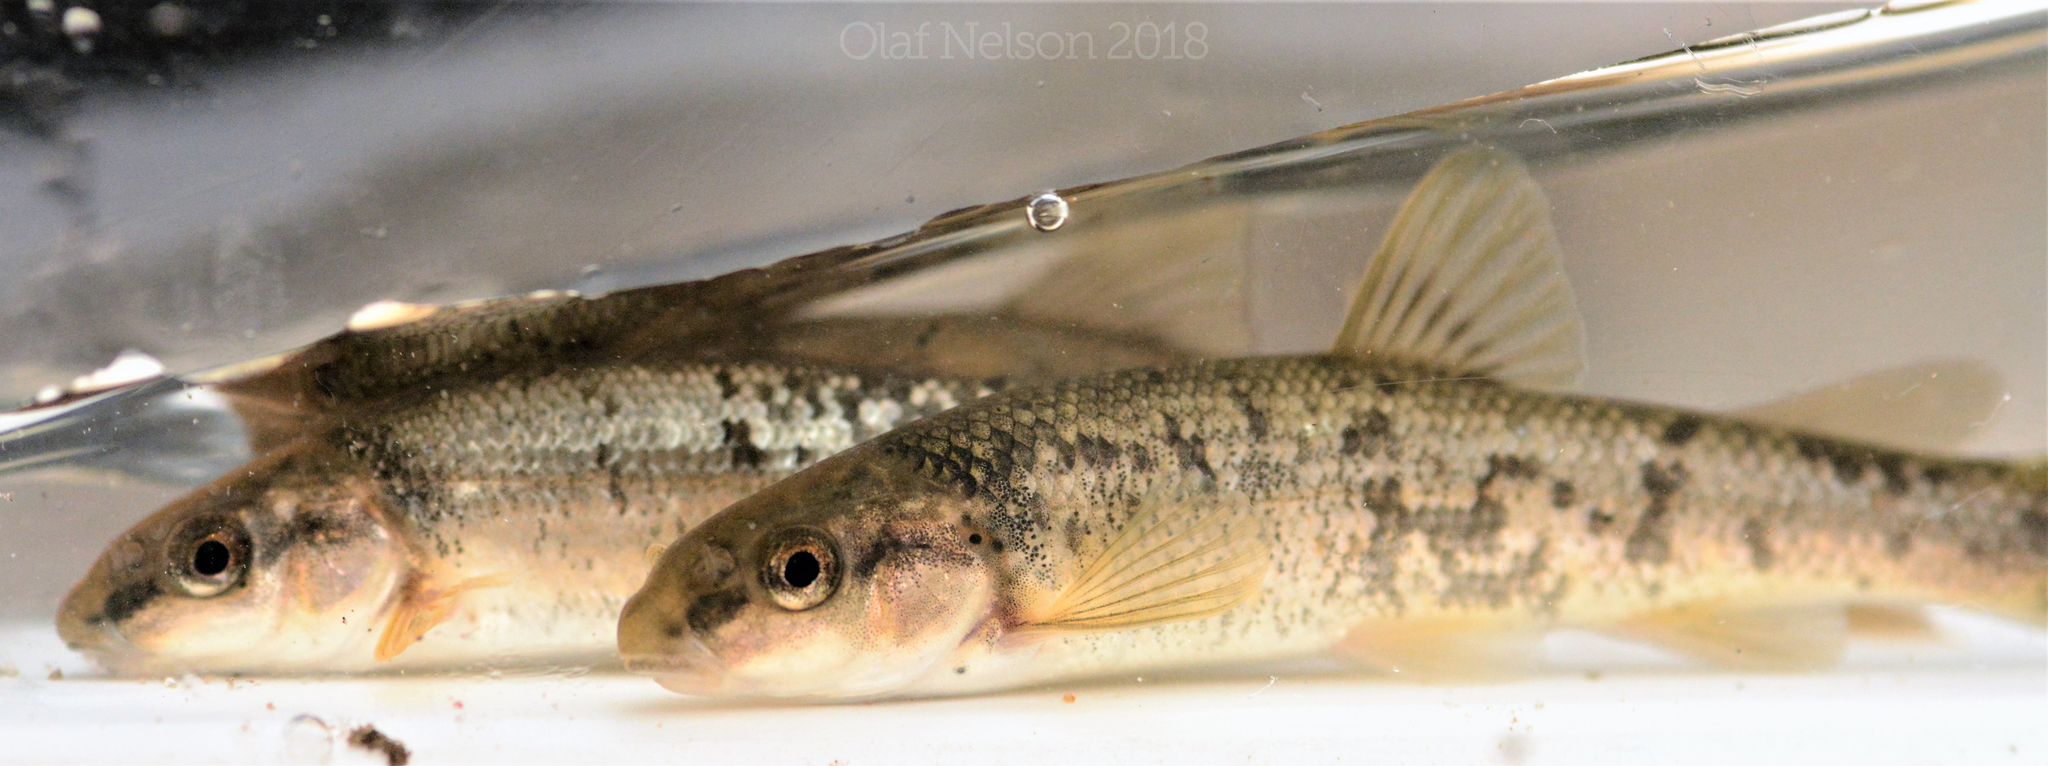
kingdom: Animalia
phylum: Chordata
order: Cypriniformes
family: Cyprinidae
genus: Campostoma
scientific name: Campostoma anomalum
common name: Central stoneroller
